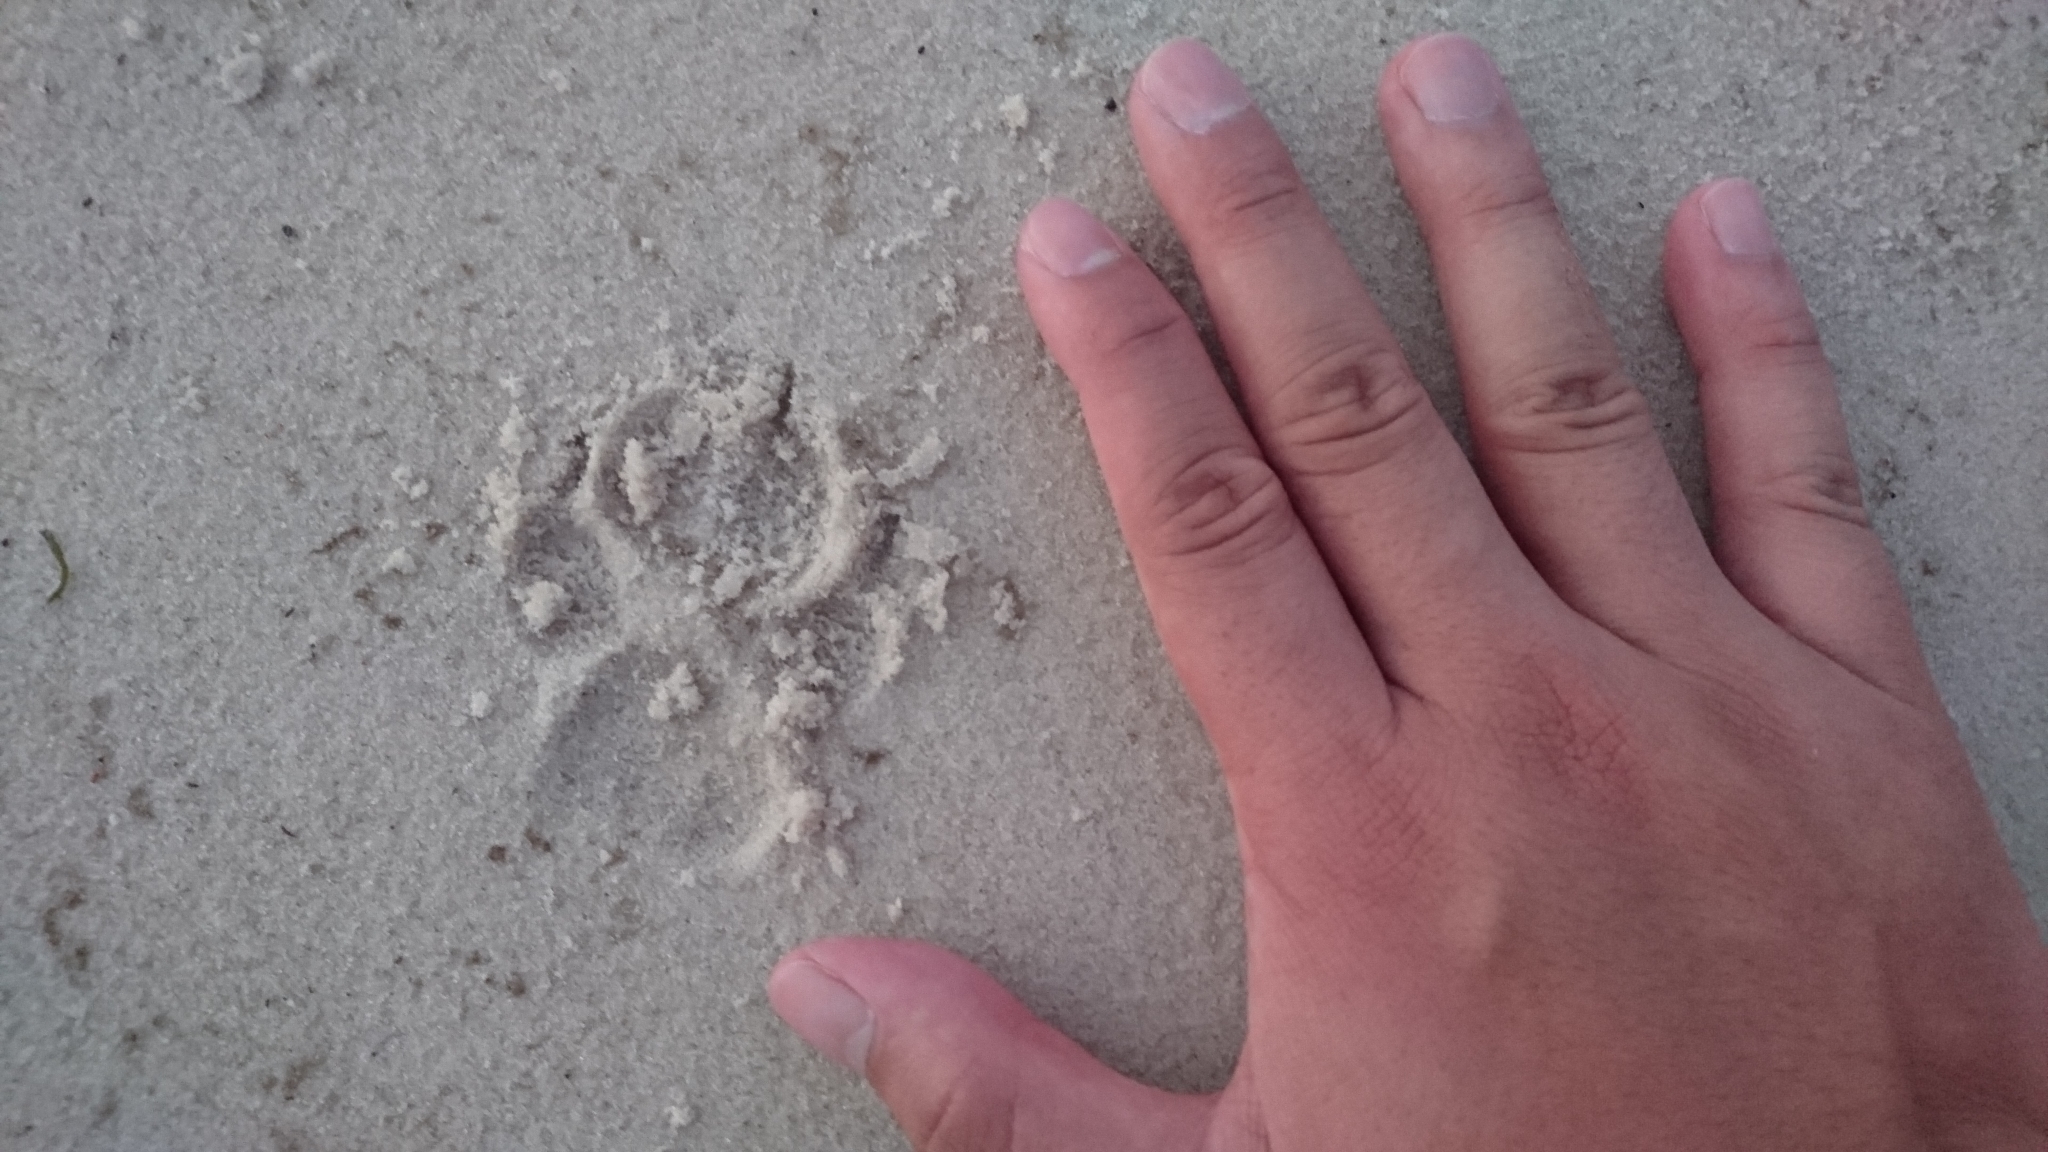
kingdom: Animalia
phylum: Chordata
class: Mammalia
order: Carnivora
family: Canidae
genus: Canis
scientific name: Canis lupus
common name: Gray wolf
